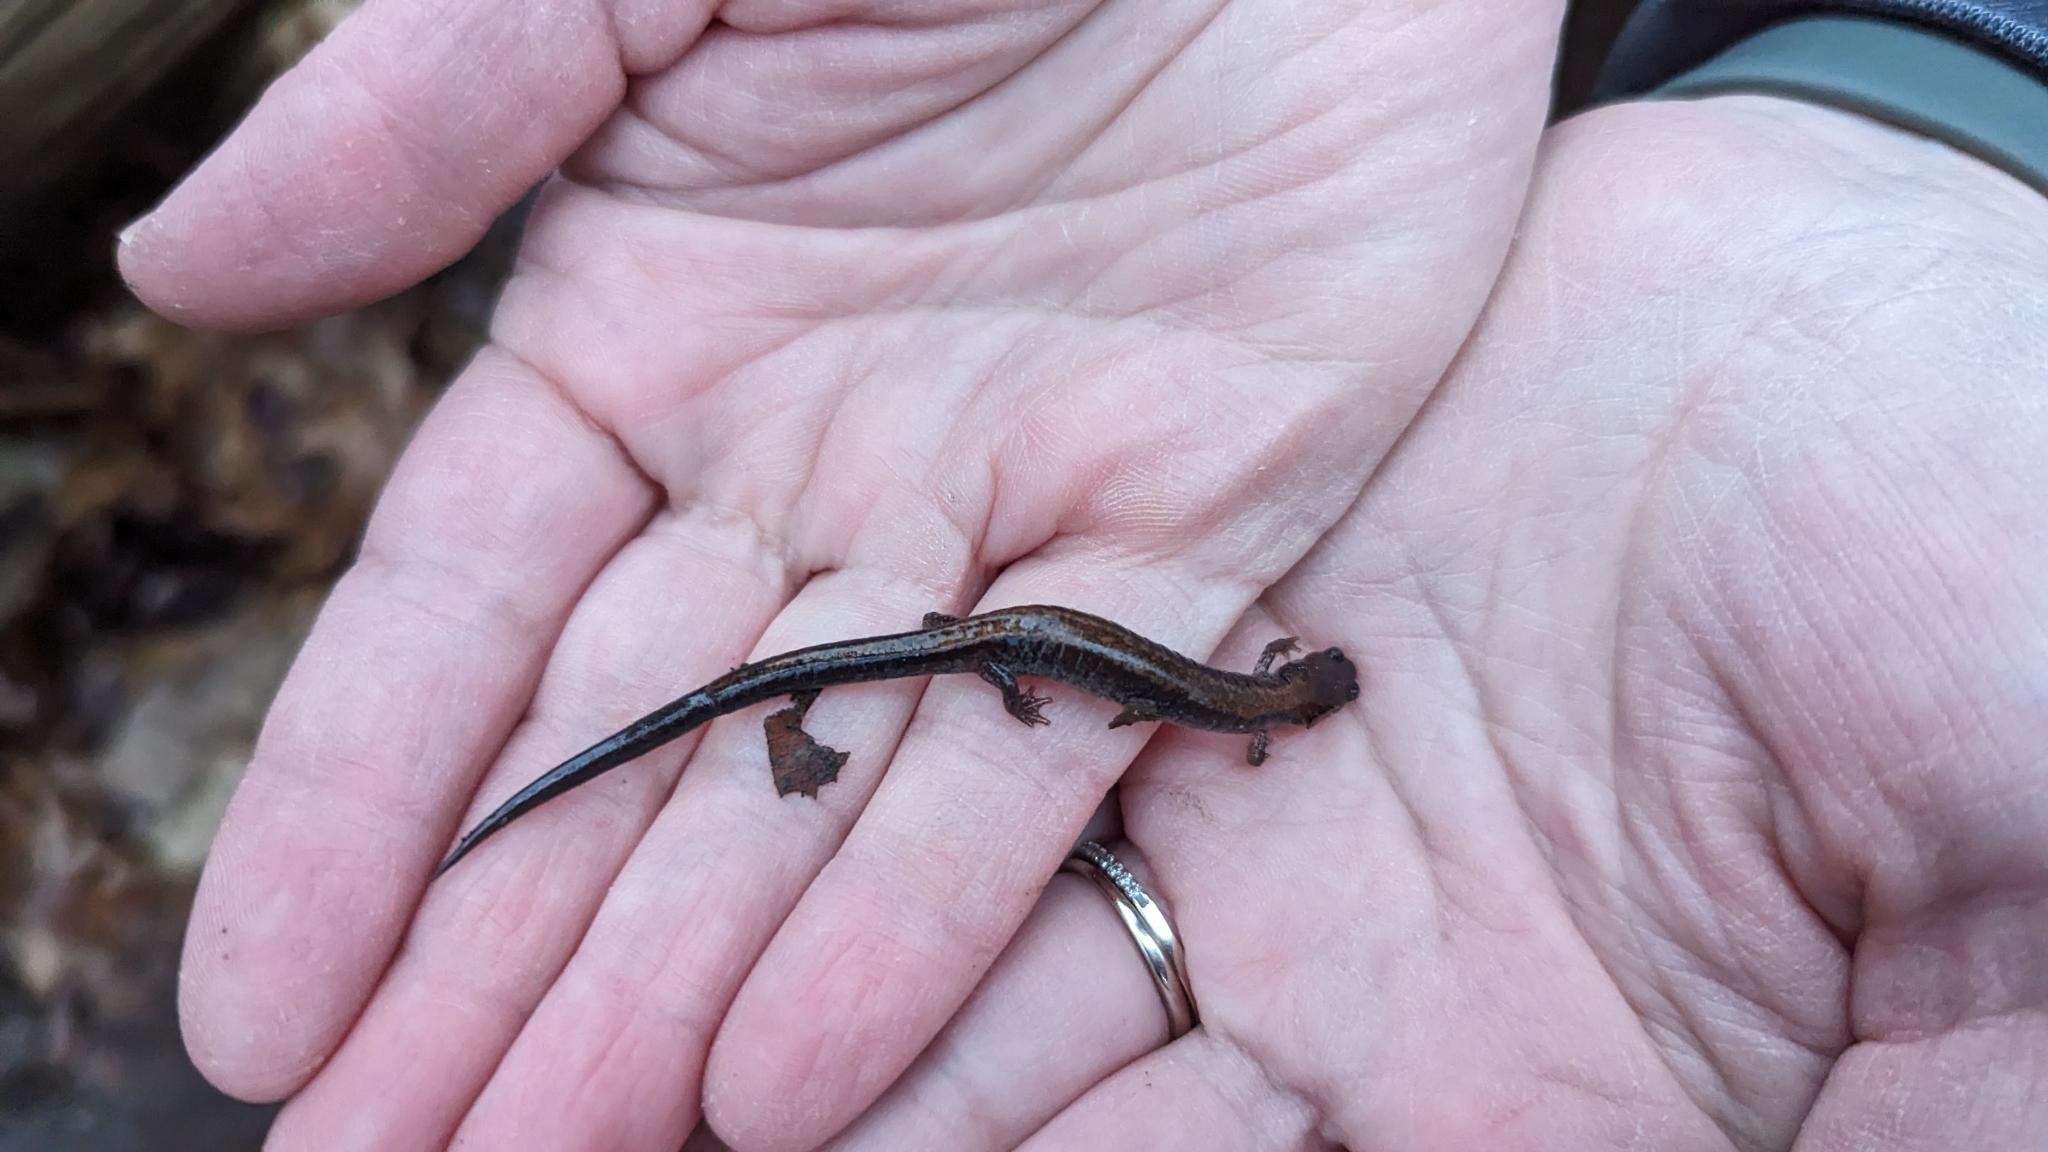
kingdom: Animalia
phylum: Chordata
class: Amphibia
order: Caudata
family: Plethodontidae
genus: Plethodon
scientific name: Plethodon cinereus
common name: Redback salamander
